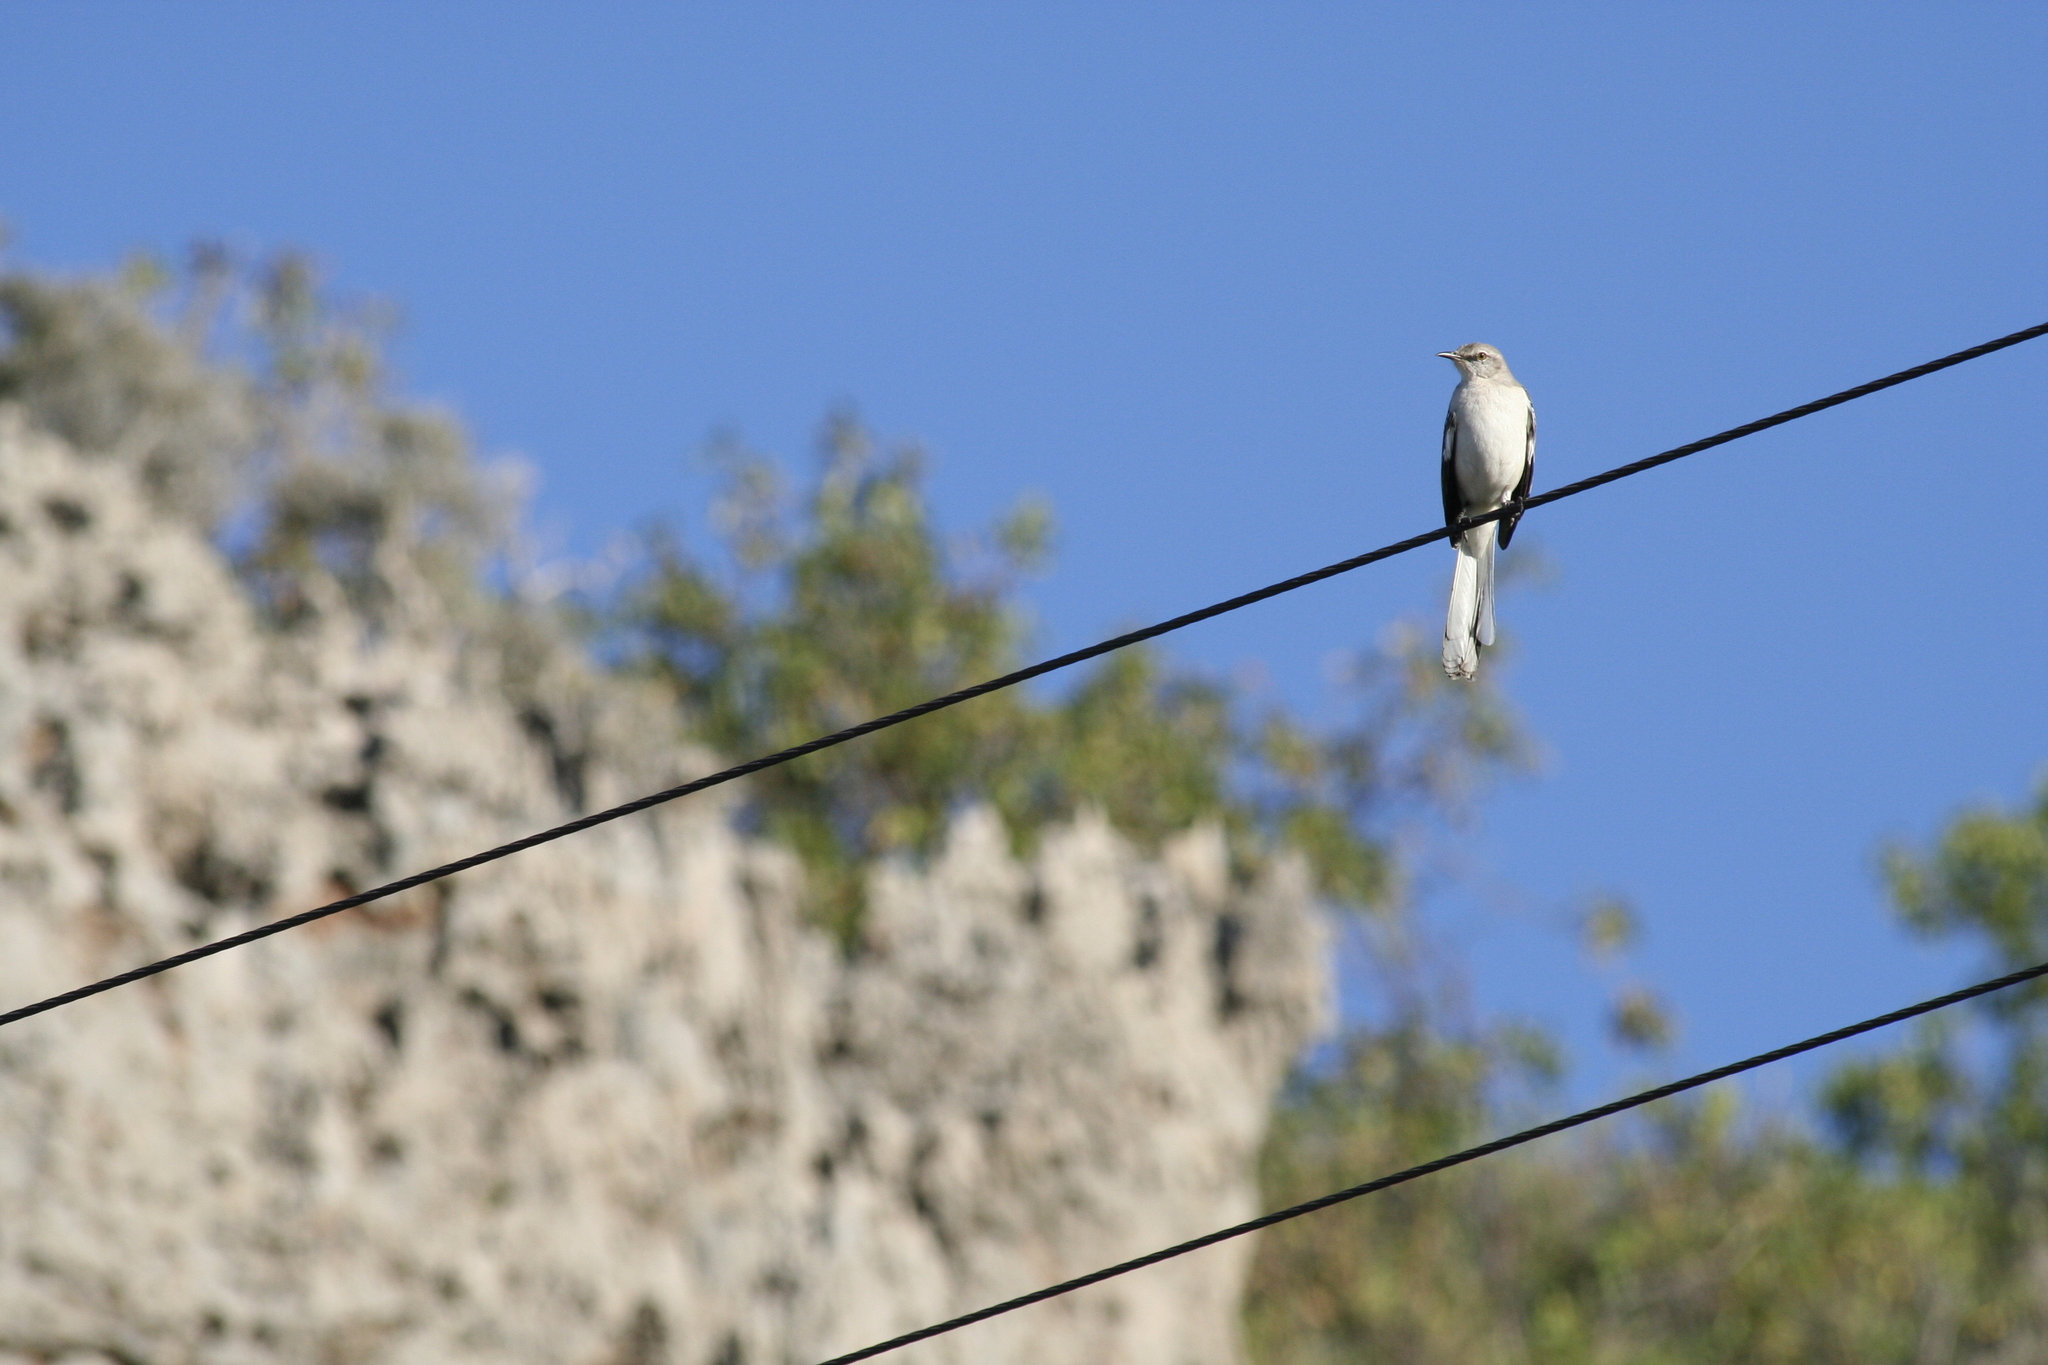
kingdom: Animalia
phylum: Chordata
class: Aves
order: Passeriformes
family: Mimidae
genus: Mimus
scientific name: Mimus polyglottos
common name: Northern mockingbird
